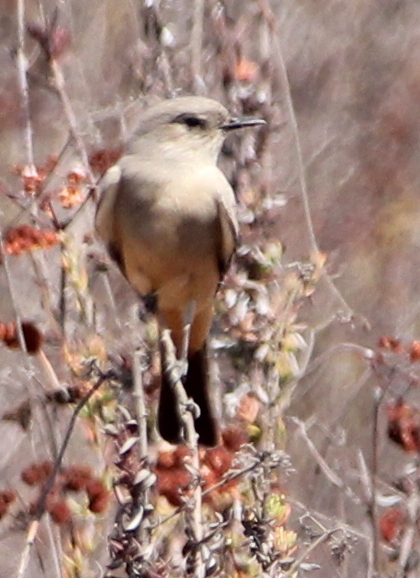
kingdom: Animalia
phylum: Chordata
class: Aves
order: Passeriformes
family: Tyrannidae
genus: Sayornis
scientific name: Sayornis saya
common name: Say's phoebe
